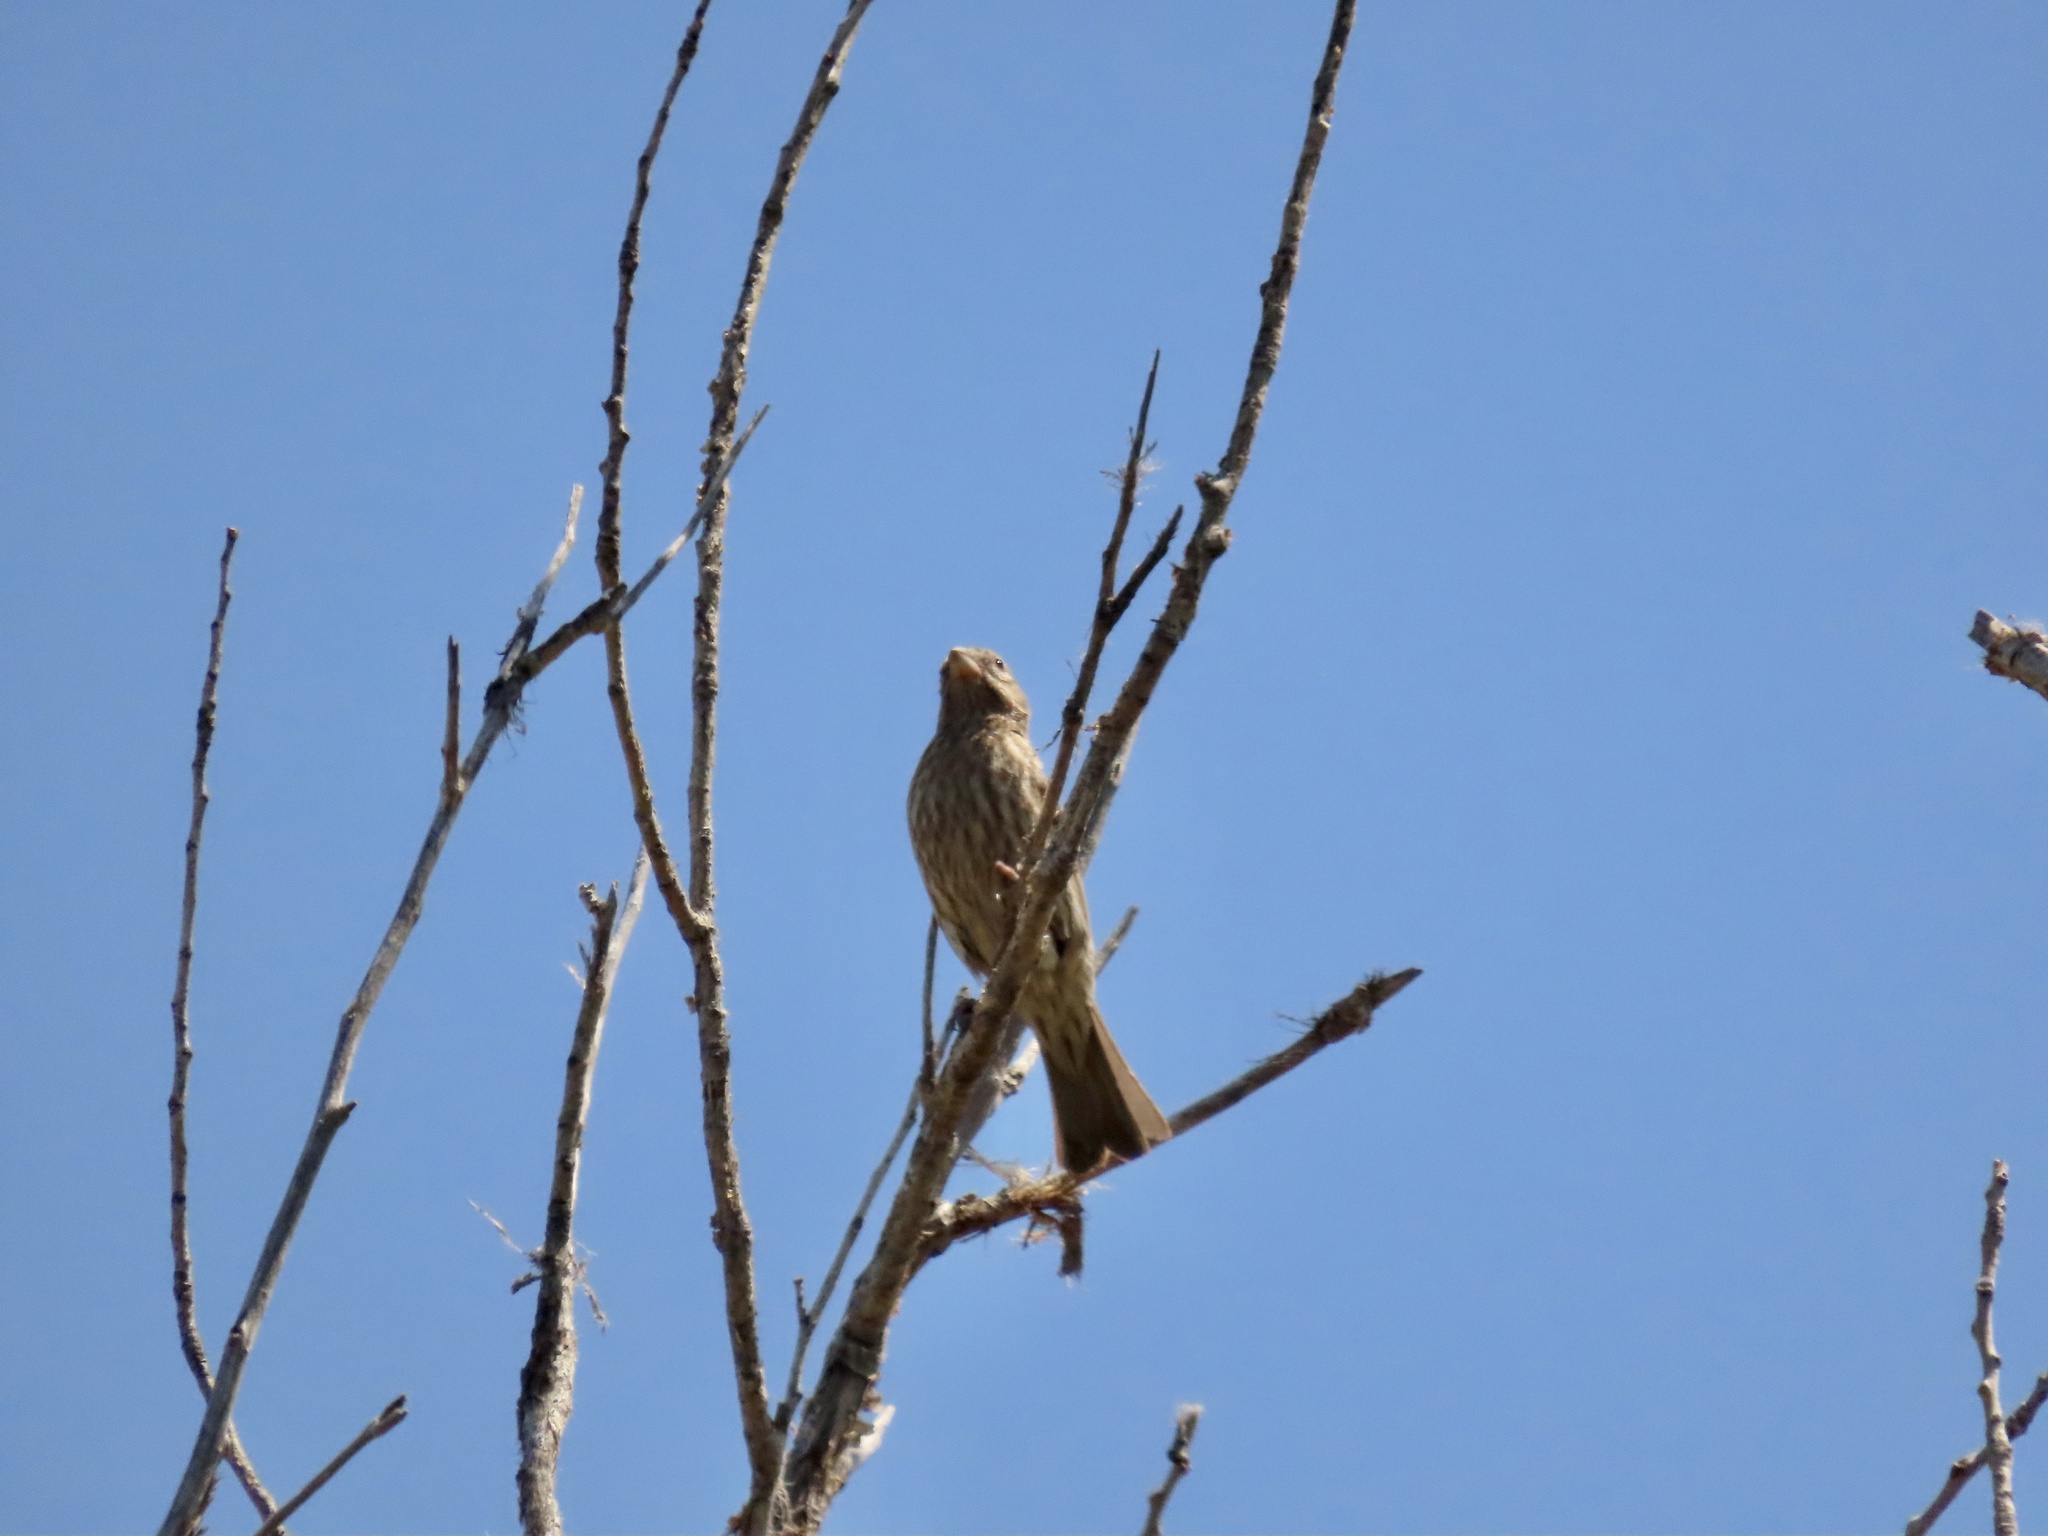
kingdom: Animalia
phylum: Chordata
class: Aves
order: Passeriformes
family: Fringillidae
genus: Haemorhous
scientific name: Haemorhous mexicanus
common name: House finch
